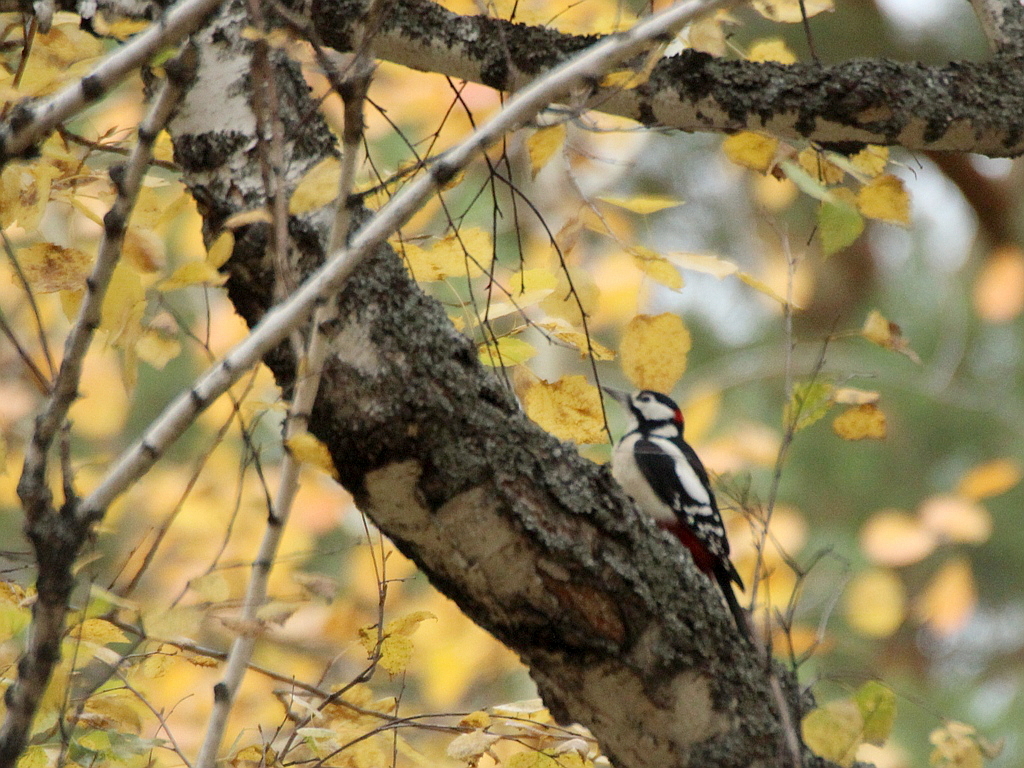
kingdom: Animalia
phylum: Chordata
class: Aves
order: Piciformes
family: Picidae
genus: Dendrocopos
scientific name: Dendrocopos major
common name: Great spotted woodpecker
